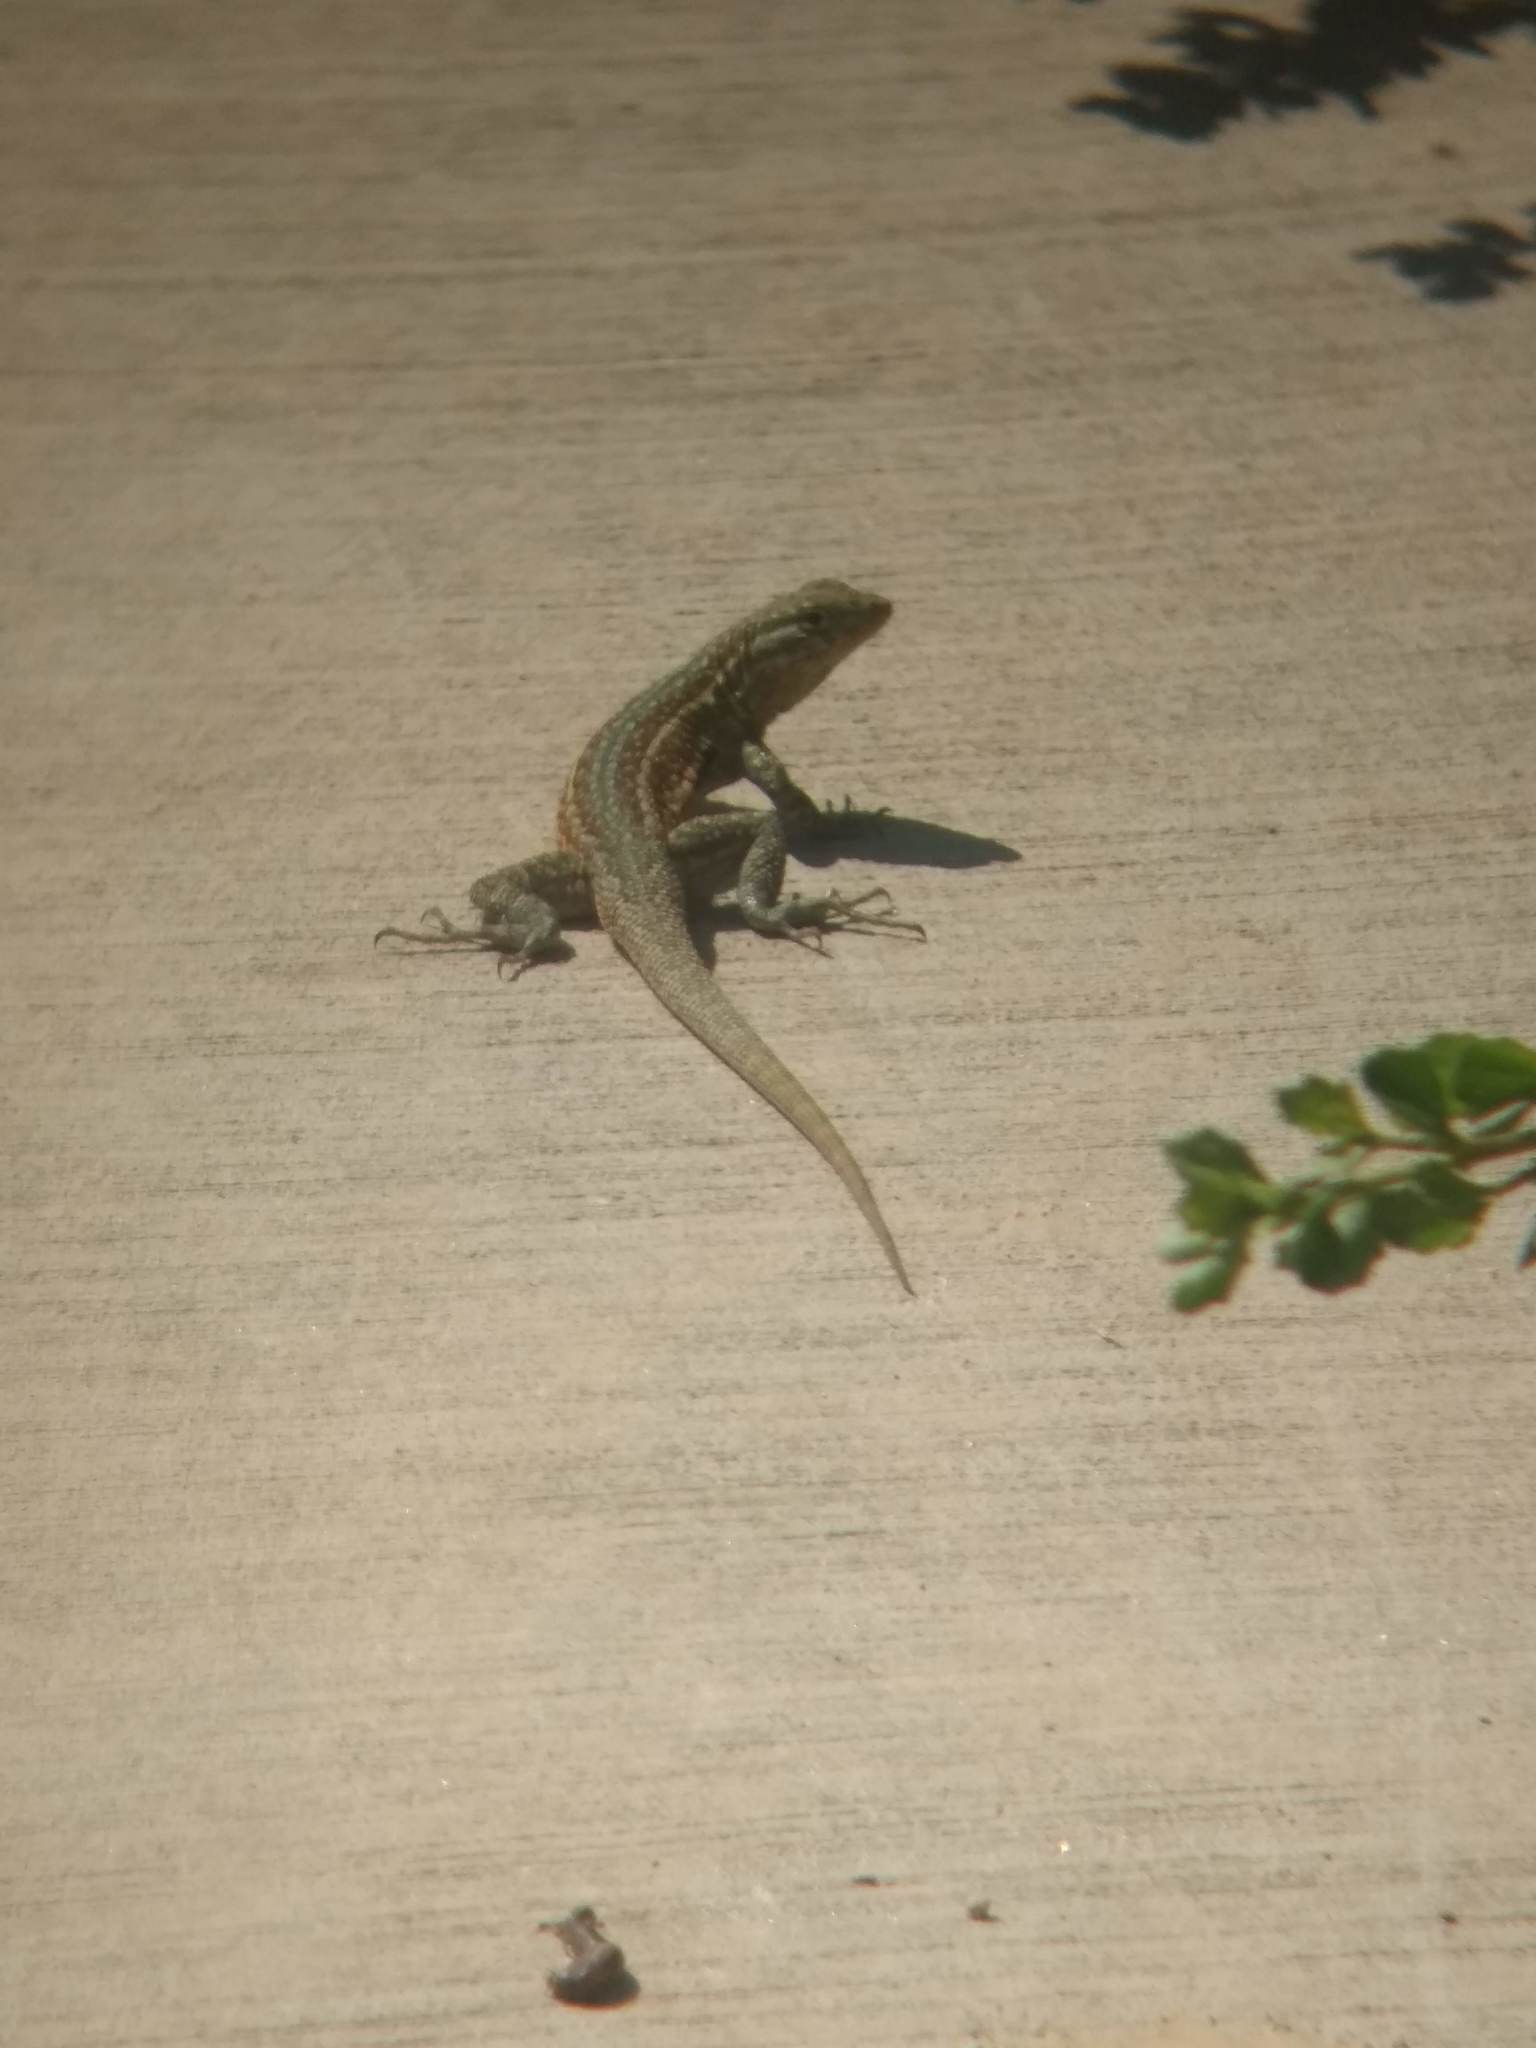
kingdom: Animalia
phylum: Chordata
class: Squamata
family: Phrynosomatidae
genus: Uta
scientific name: Uta stansburiana
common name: Side-blotched lizard
